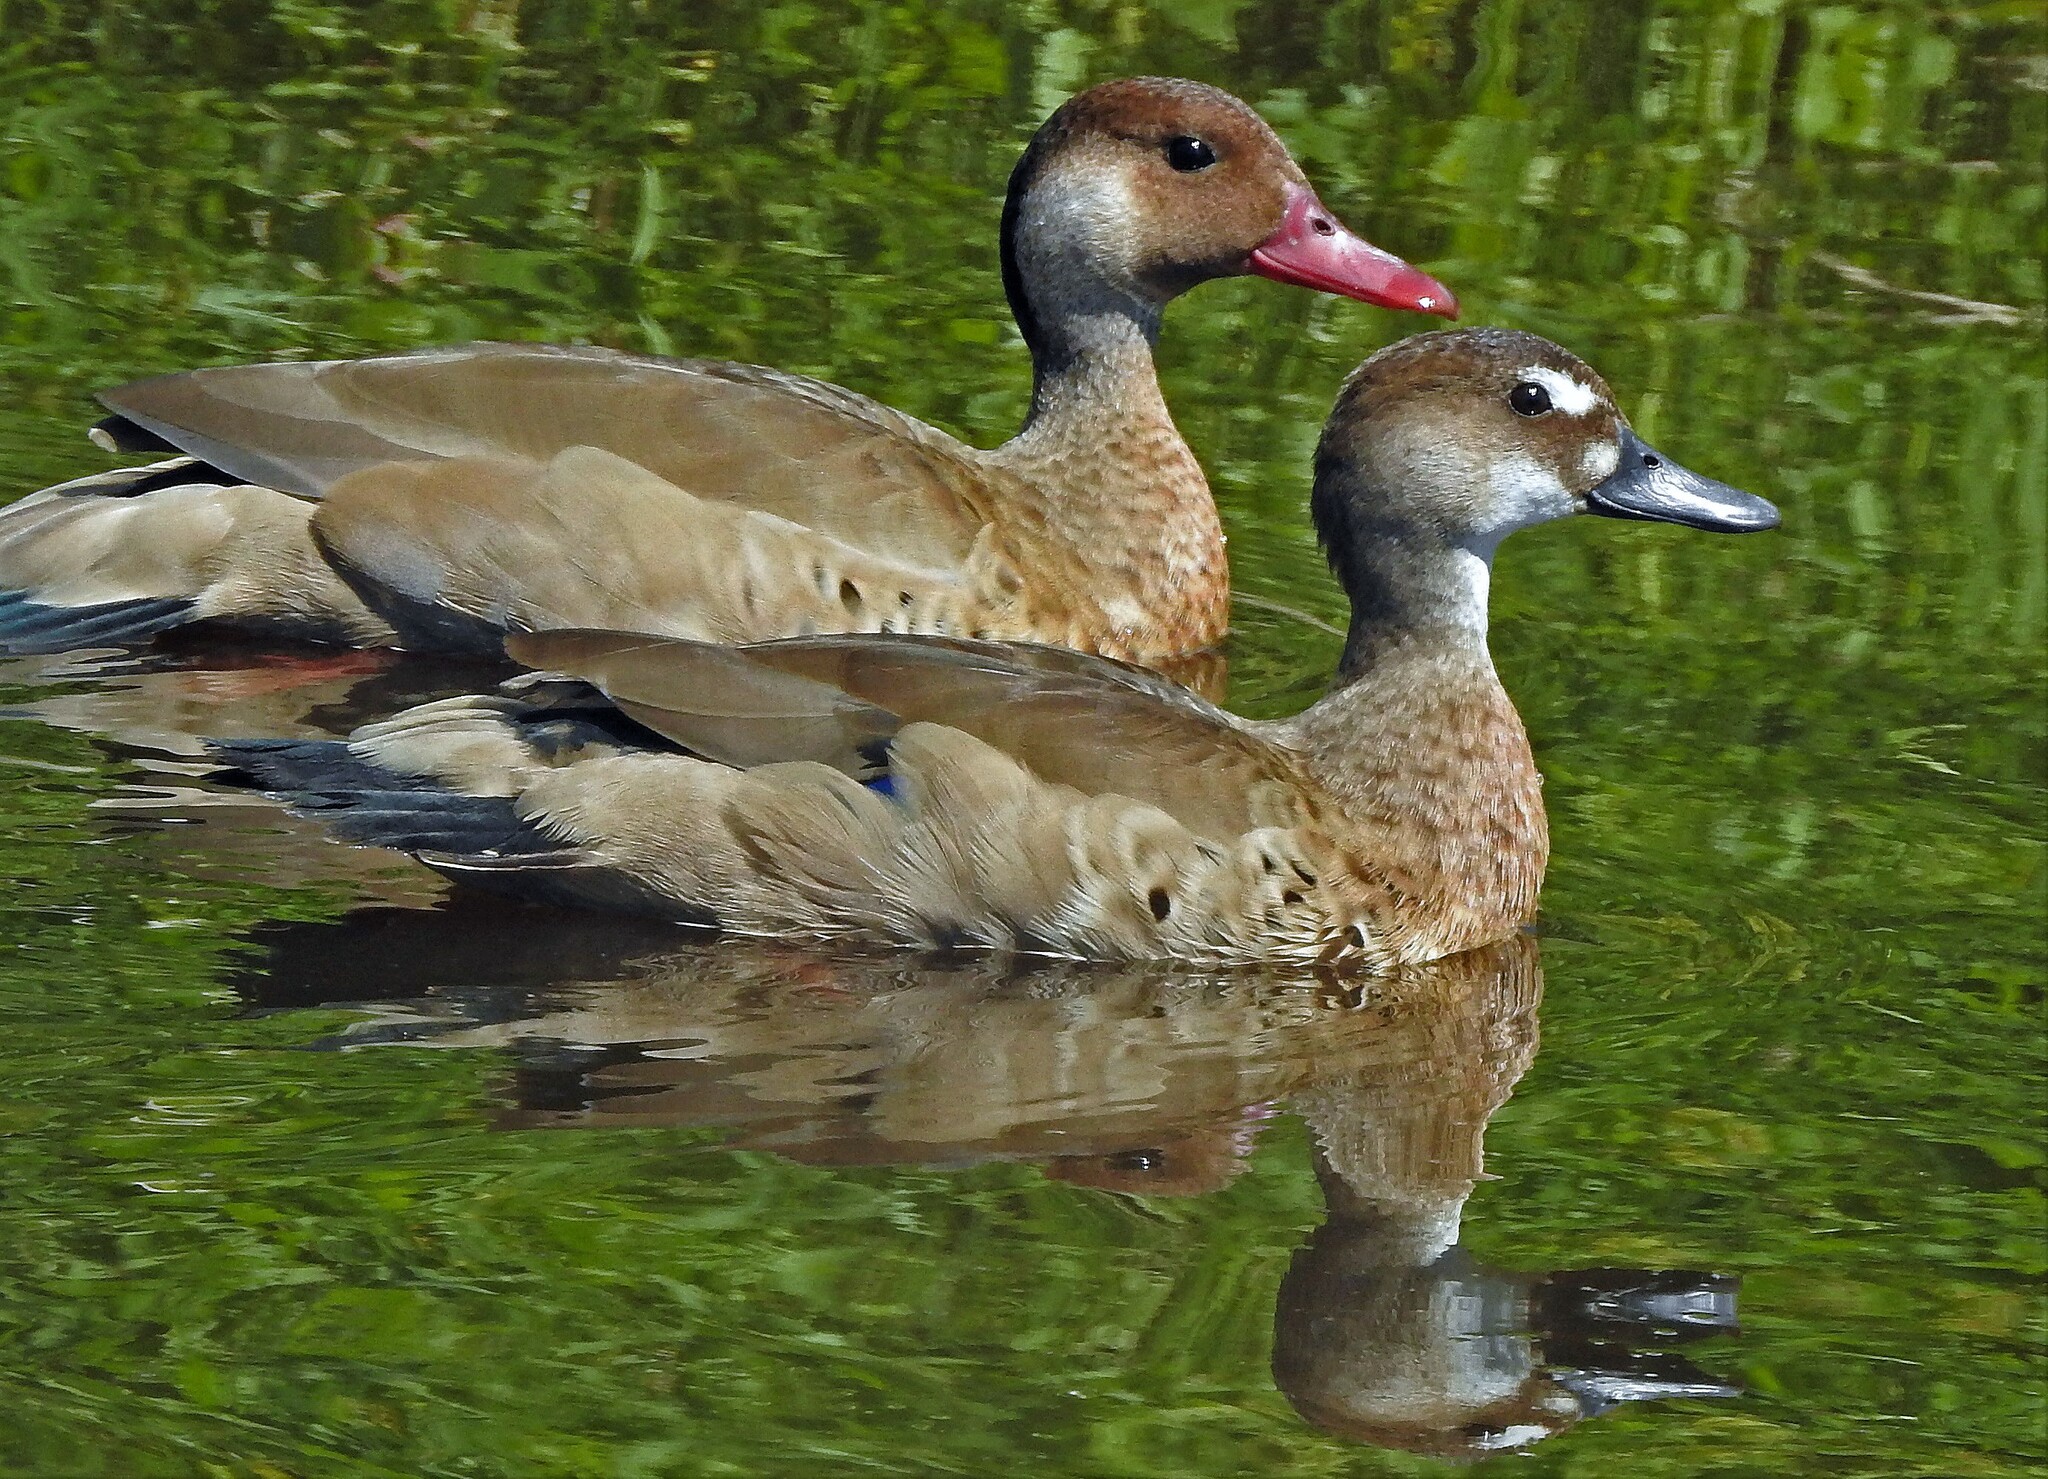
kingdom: Animalia
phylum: Chordata
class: Aves
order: Anseriformes
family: Anatidae
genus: Amazonetta
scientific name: Amazonetta brasiliensis
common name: Brazilian teal
